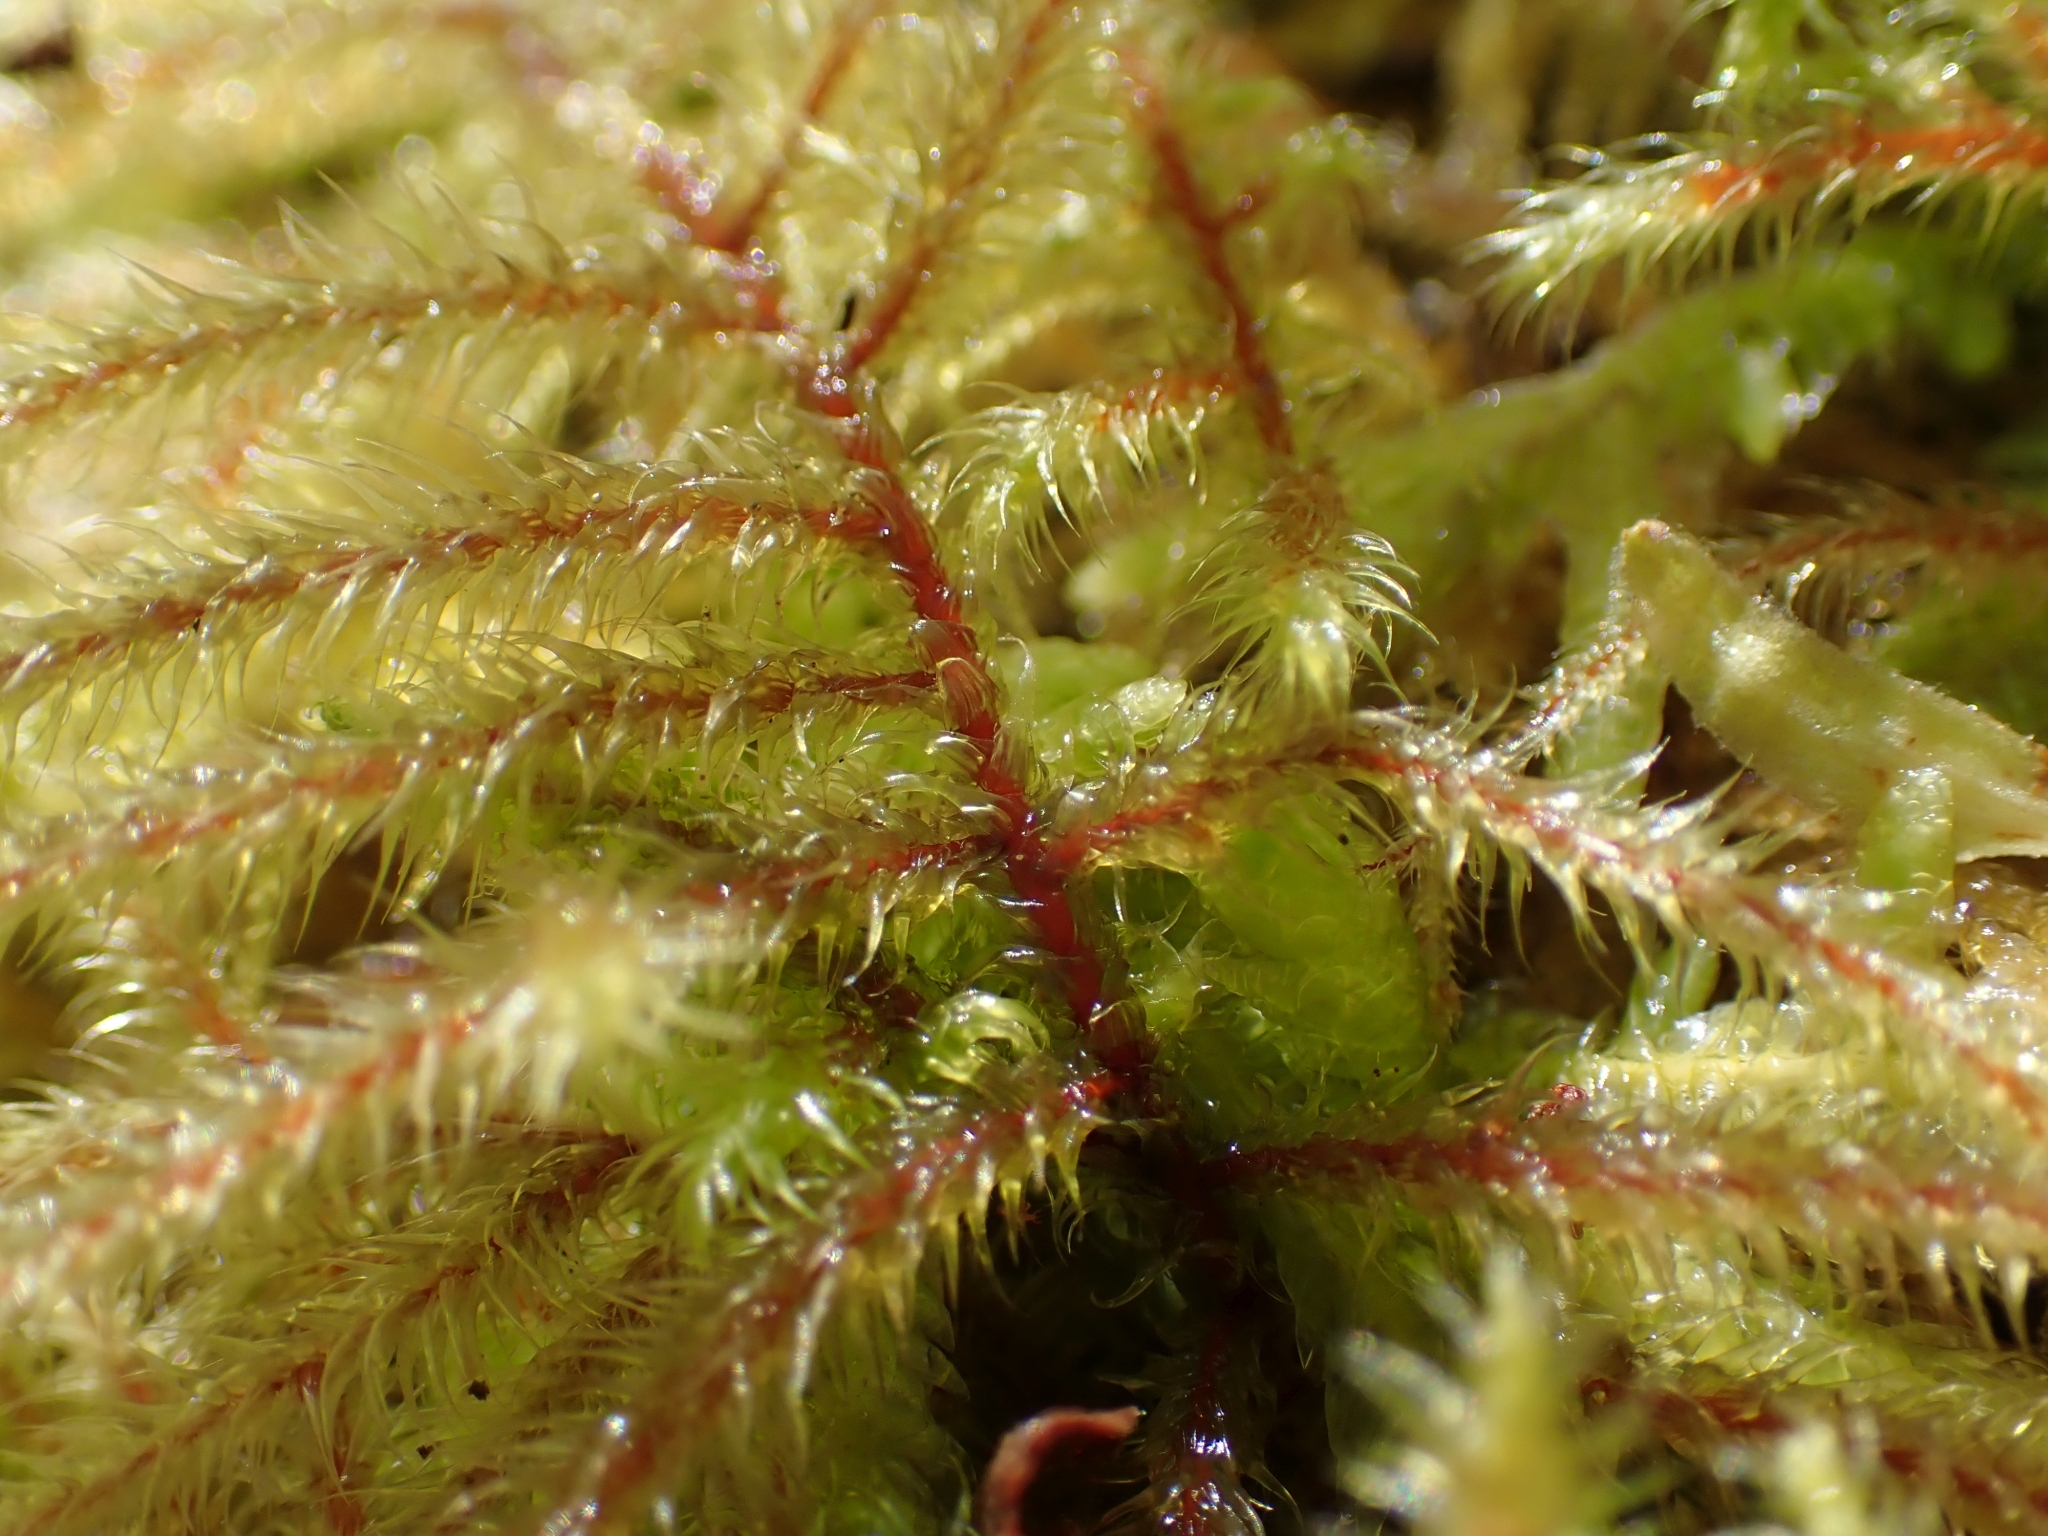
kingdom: Plantae
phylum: Bryophyta
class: Bryopsida
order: Hypnales
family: Hylocomiaceae
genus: Rhytidiadelphus
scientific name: Rhytidiadelphus loreus
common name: Lanky moss
